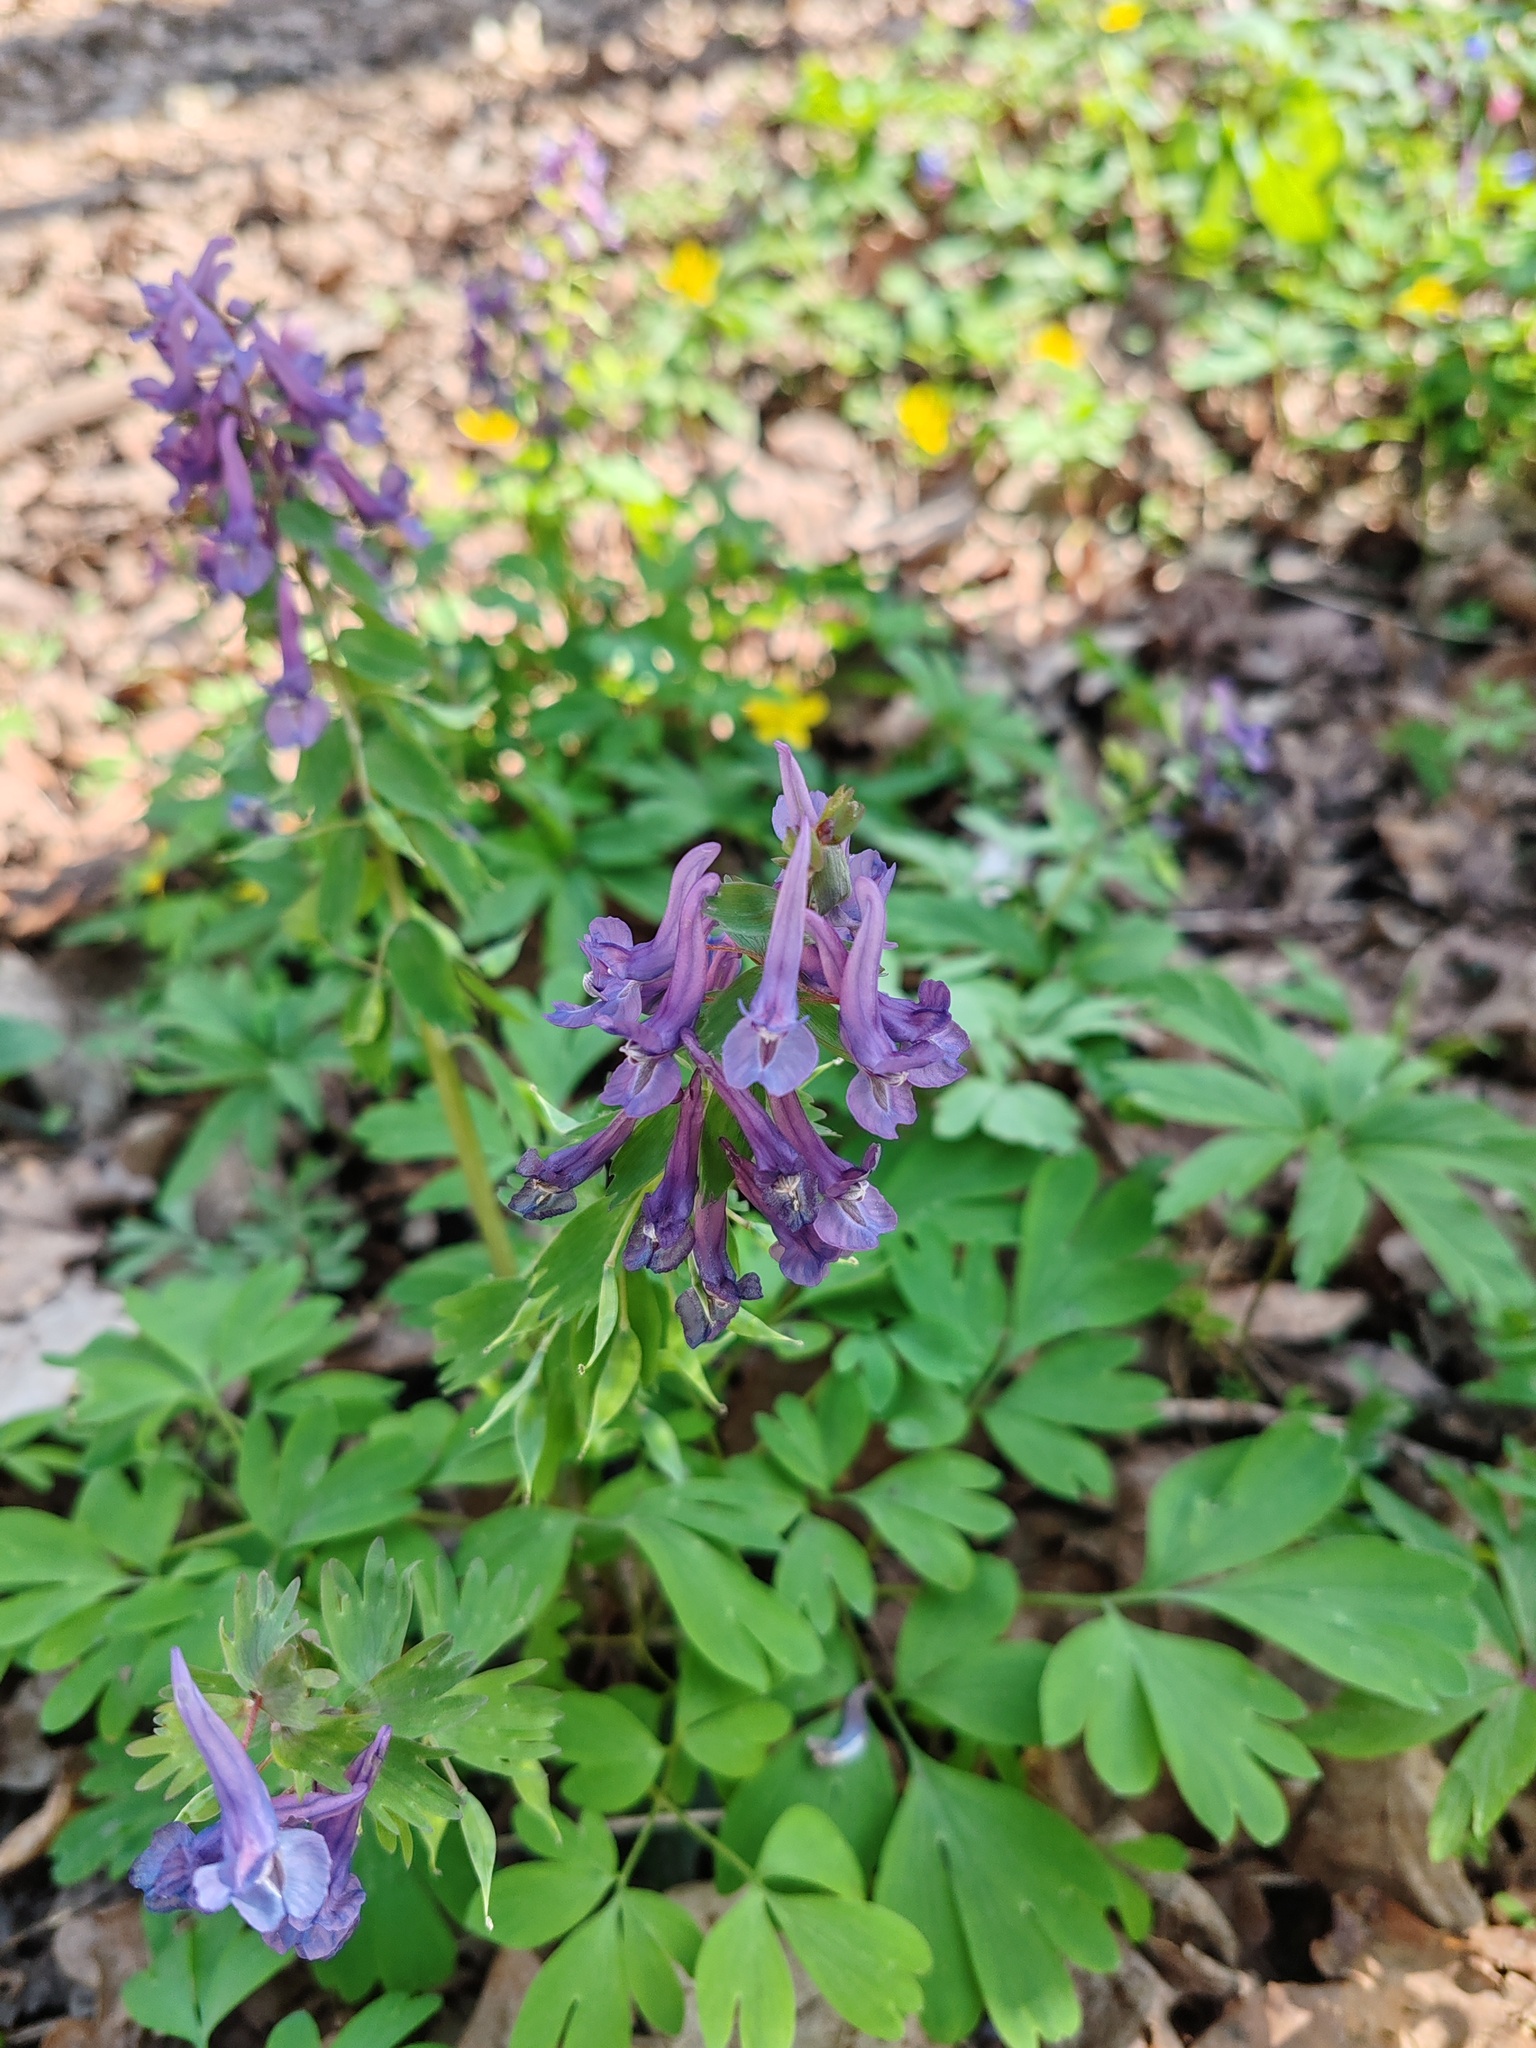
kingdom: Plantae
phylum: Tracheophyta
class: Magnoliopsida
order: Ranunculales
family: Papaveraceae
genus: Corydalis
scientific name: Corydalis solida
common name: Bird-in-a-bush
